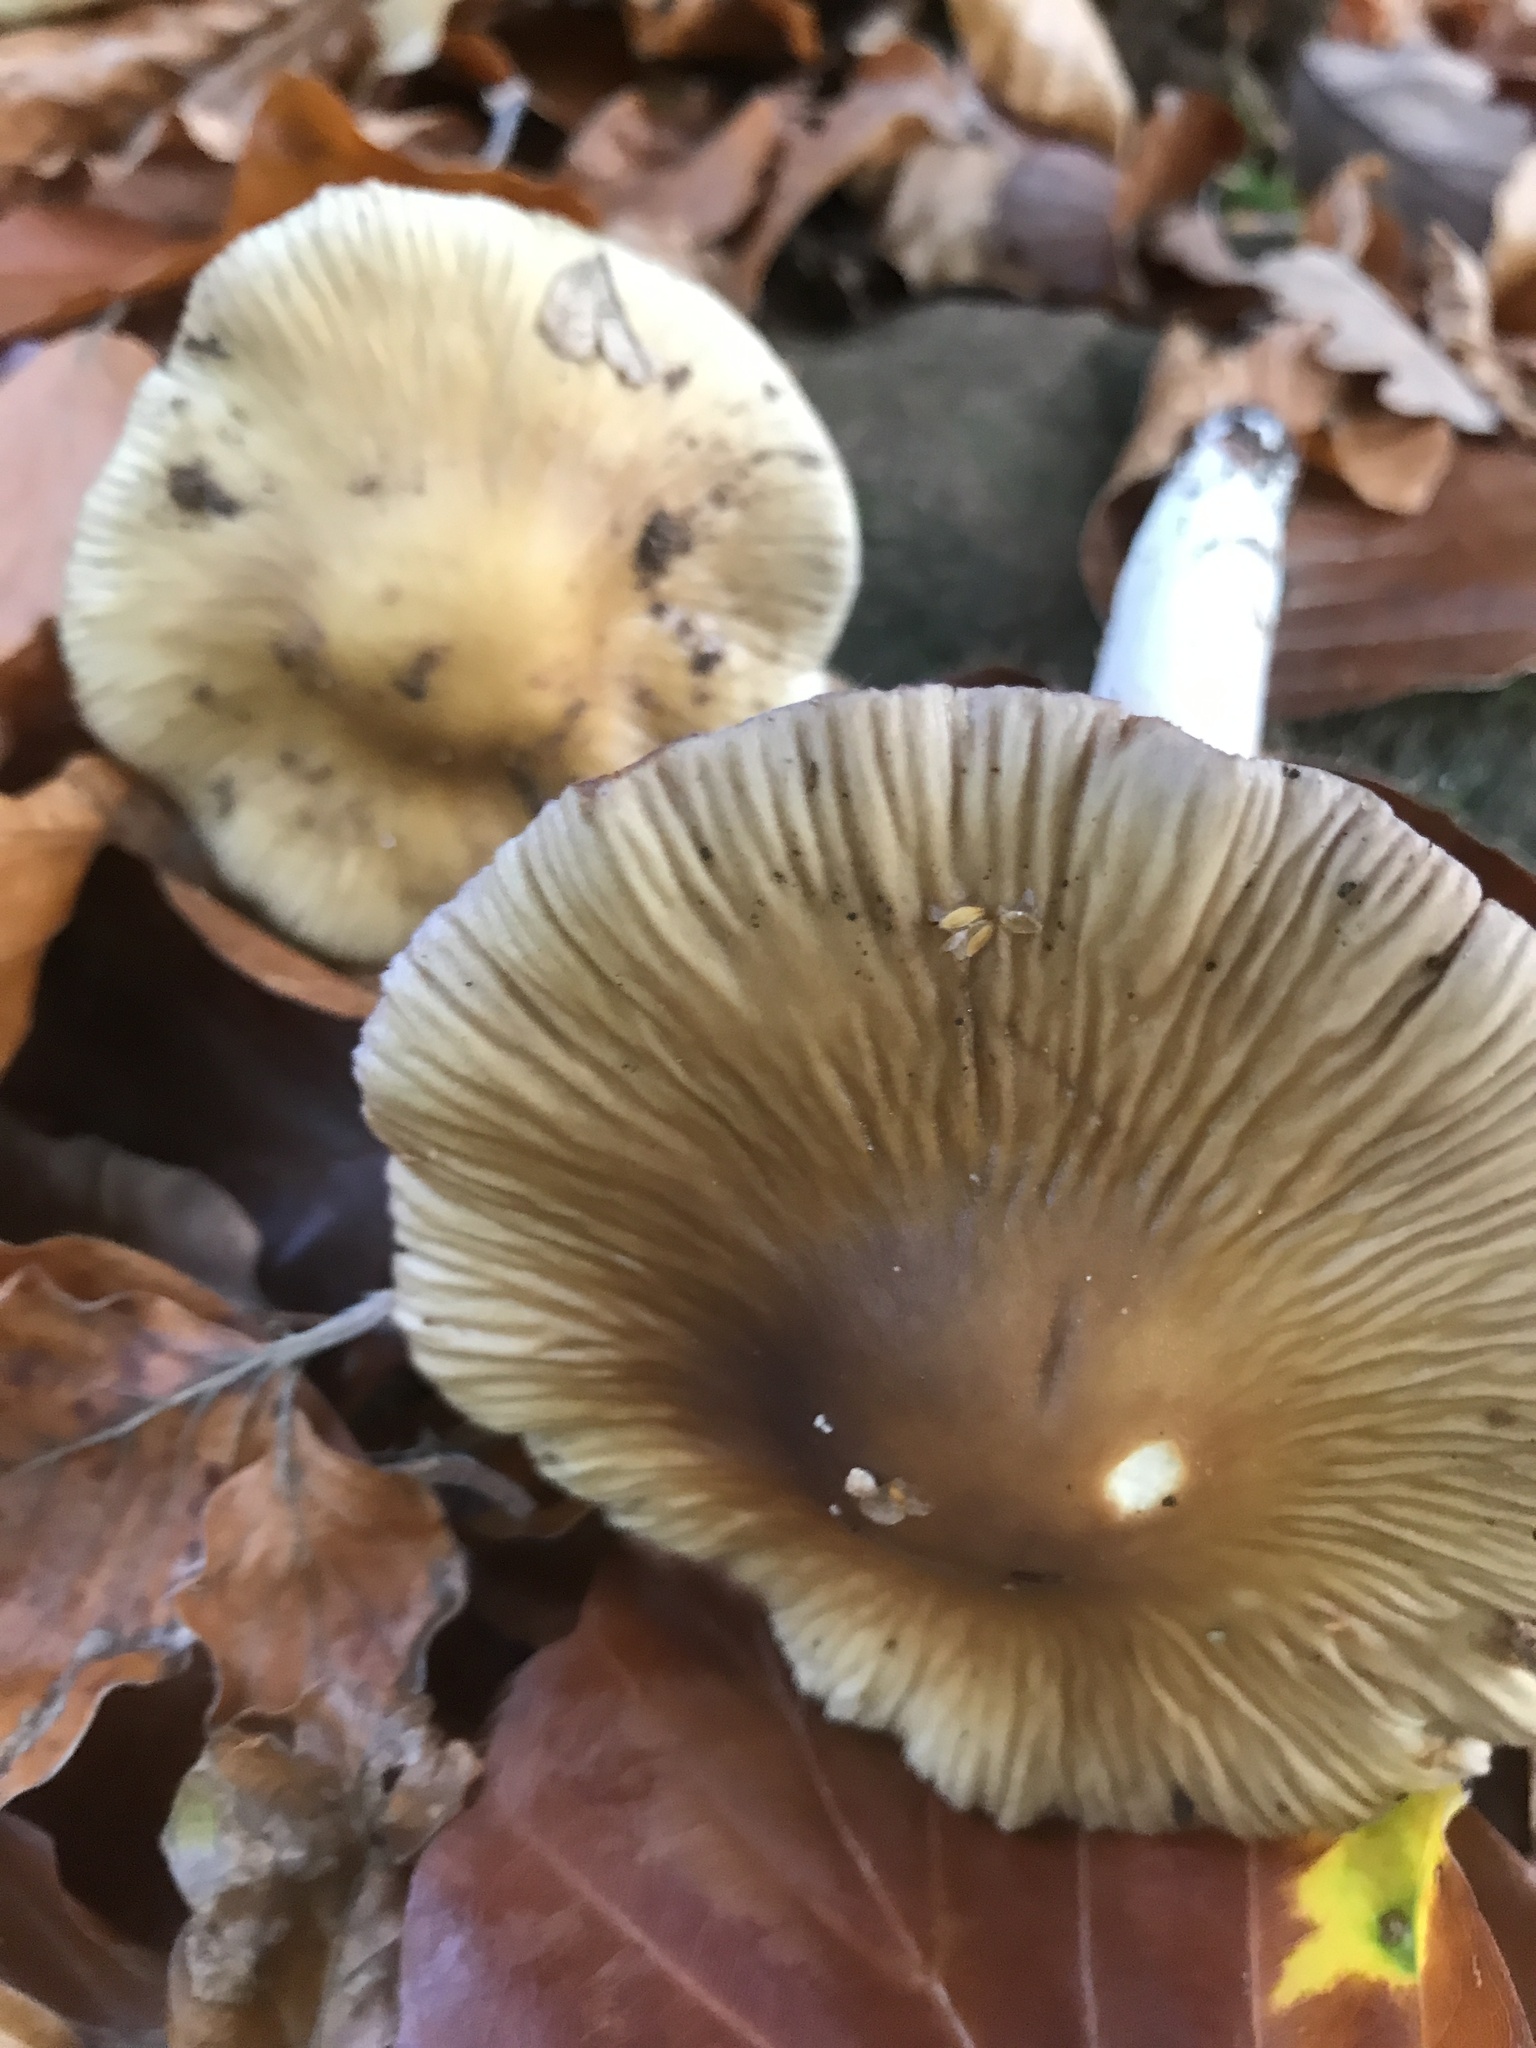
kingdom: Fungi
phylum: Basidiomycota
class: Agaricomycetes
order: Agaricales
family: Cortinariaceae
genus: Cortinarius
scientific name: Cortinarius livido-ochraceus
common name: Wrinkled webcap
